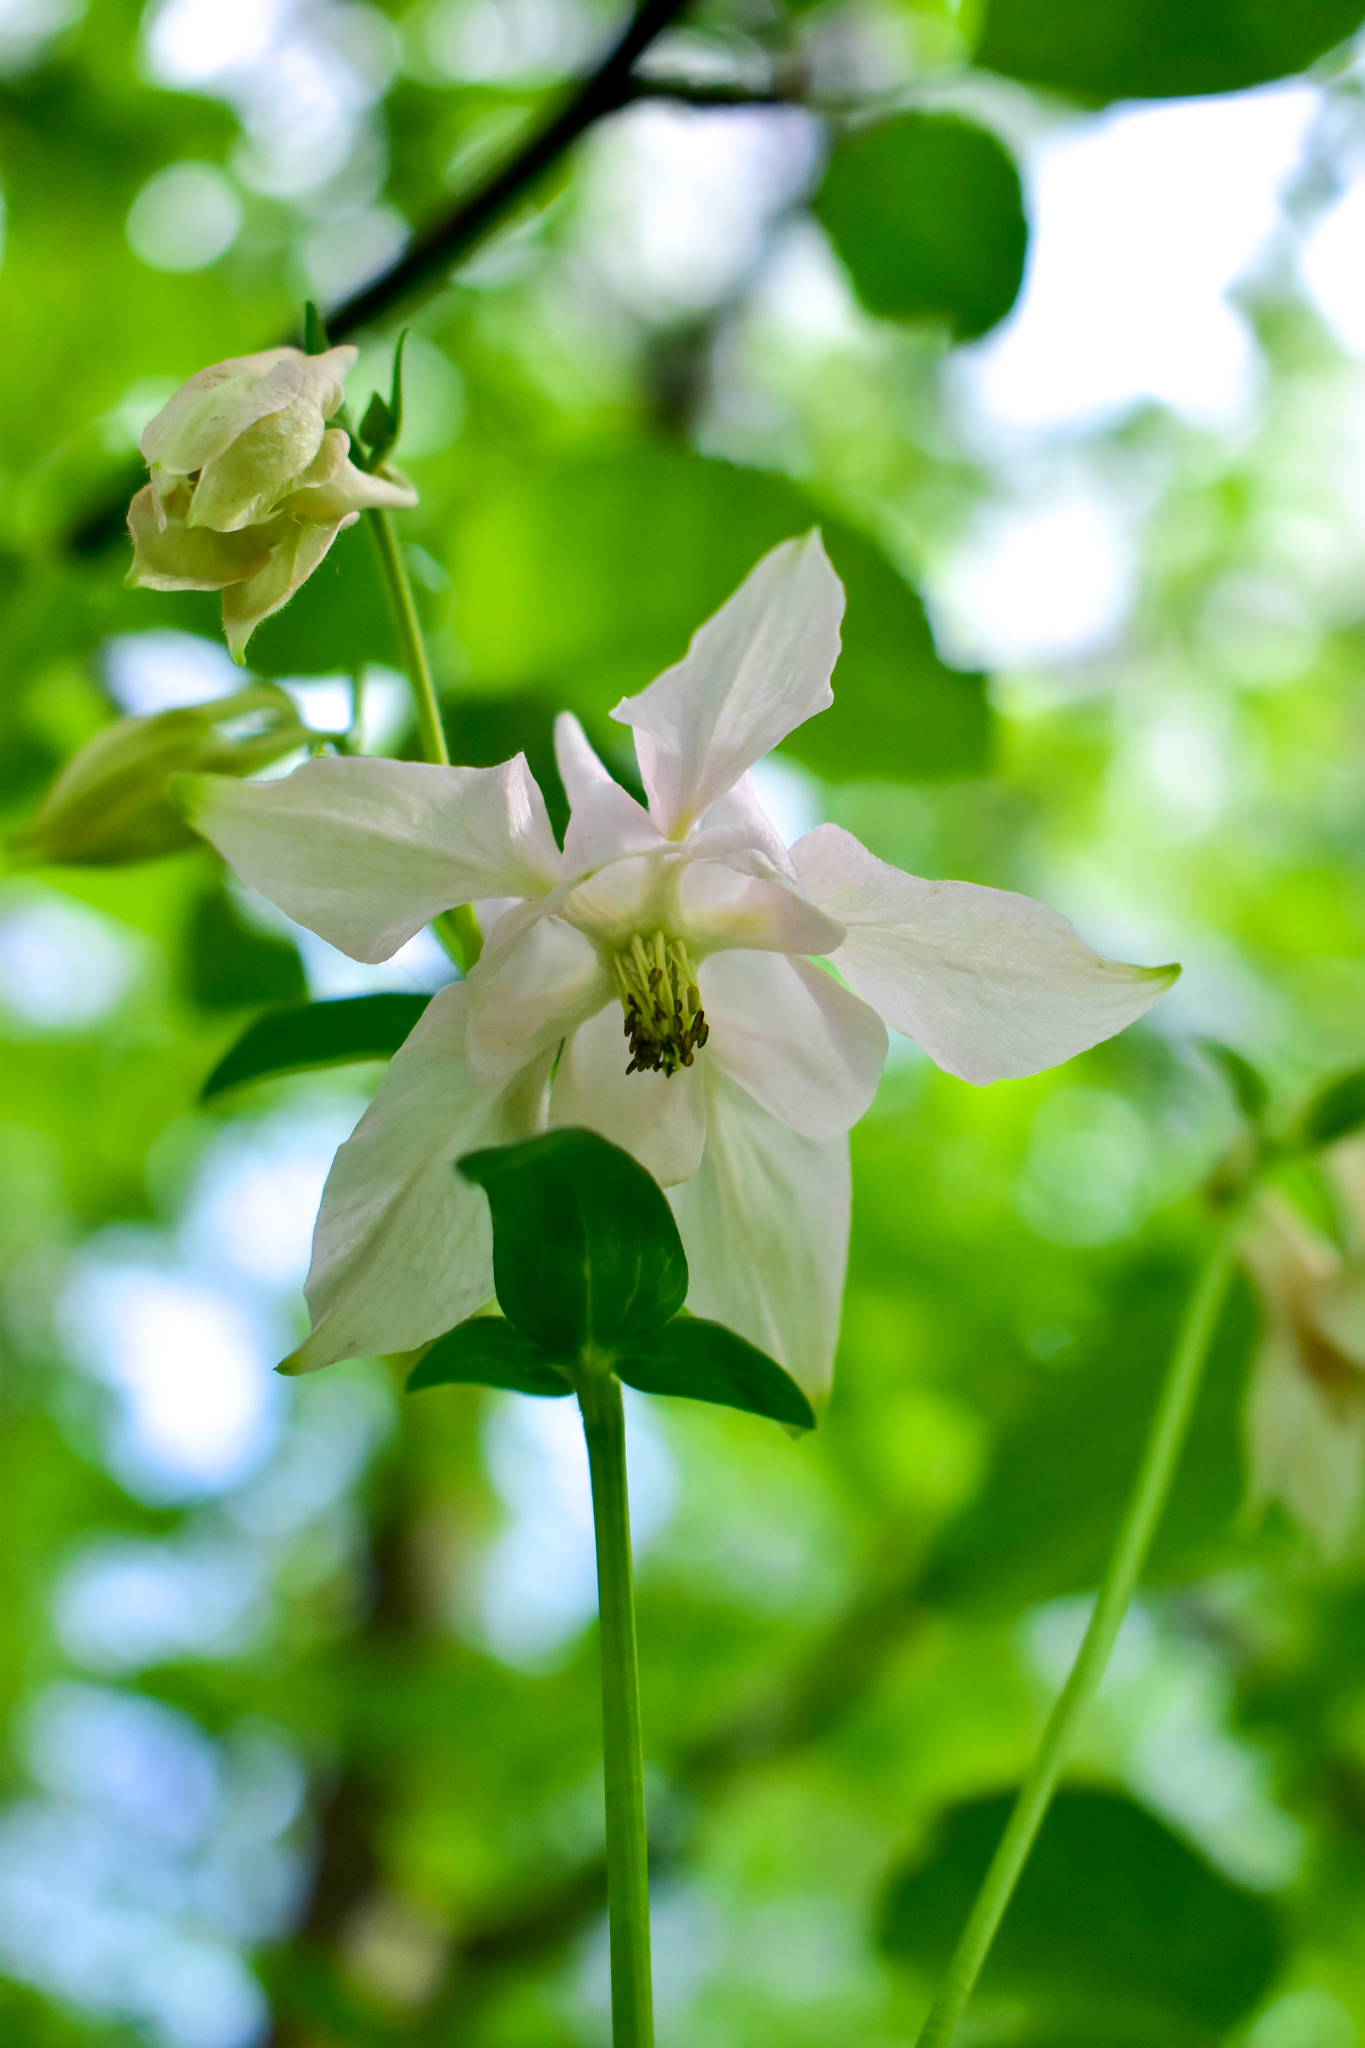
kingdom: Plantae
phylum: Tracheophyta
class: Magnoliopsida
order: Ranunculales
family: Ranunculaceae
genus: Aquilegia
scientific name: Aquilegia vulgaris
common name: Columbine
